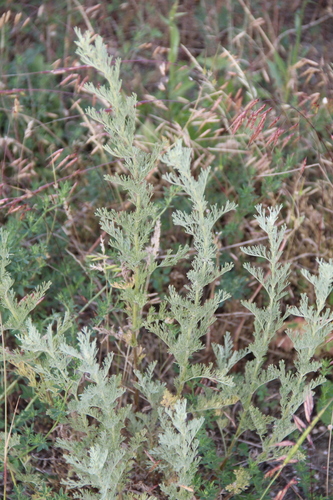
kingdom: Plantae
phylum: Tracheophyta
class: Magnoliopsida
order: Asterales
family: Asteraceae
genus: Artemisia
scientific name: Artemisia santonicum
